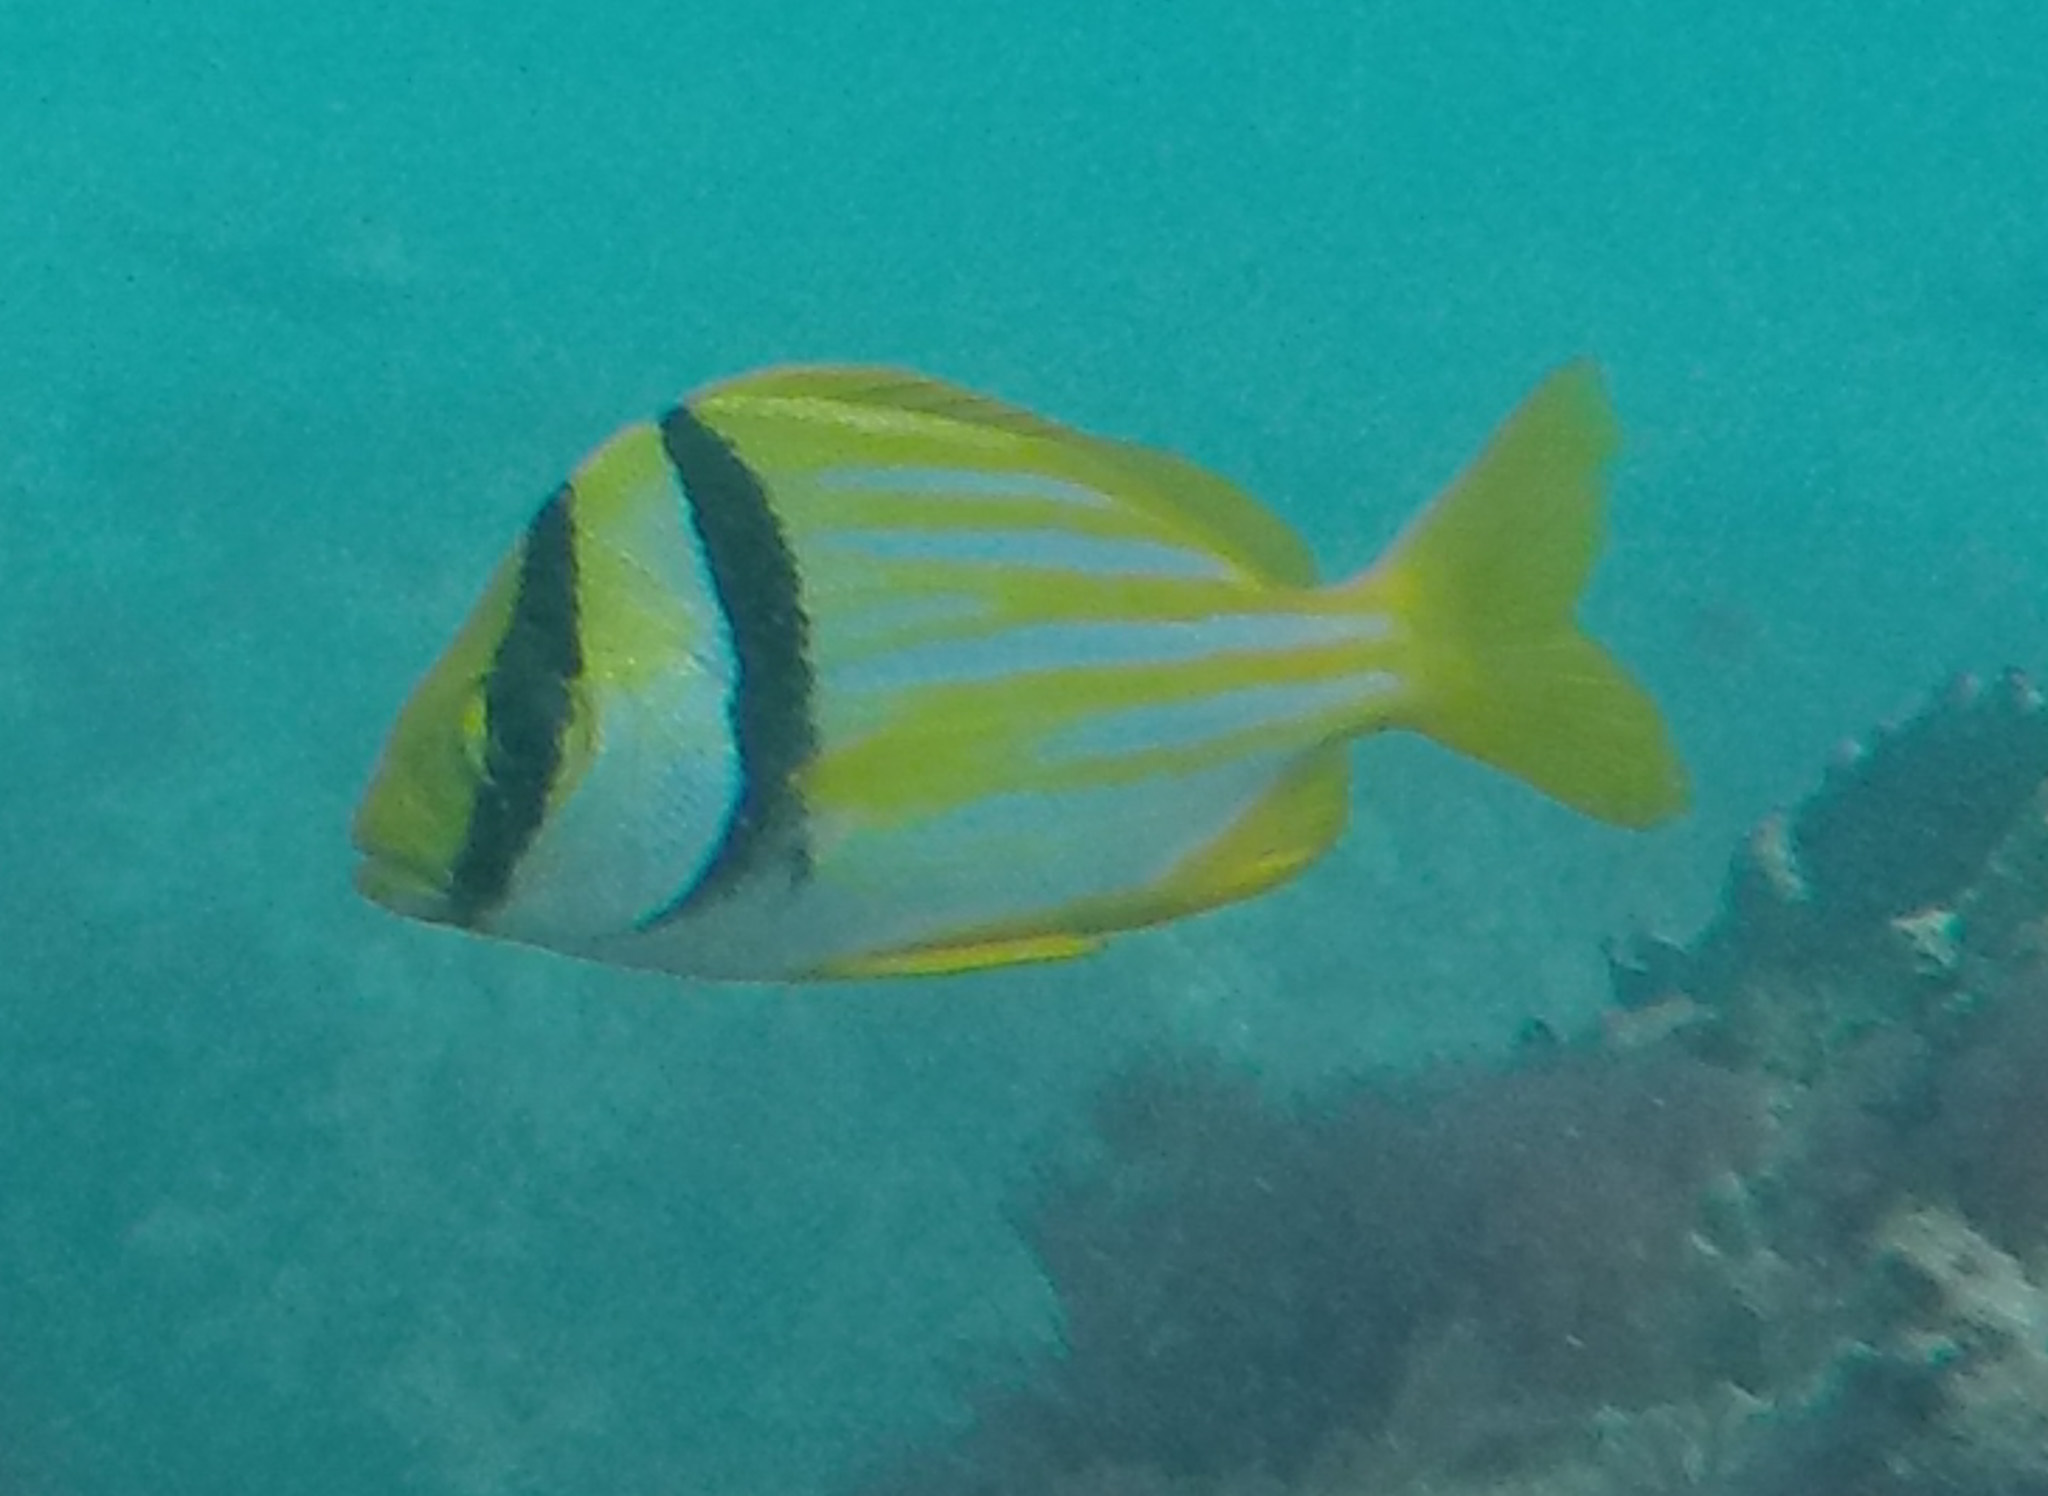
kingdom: Animalia
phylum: Chordata
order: Perciformes
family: Haemulidae
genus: Anisotremus
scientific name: Anisotremus virginicus
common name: Porkfish
